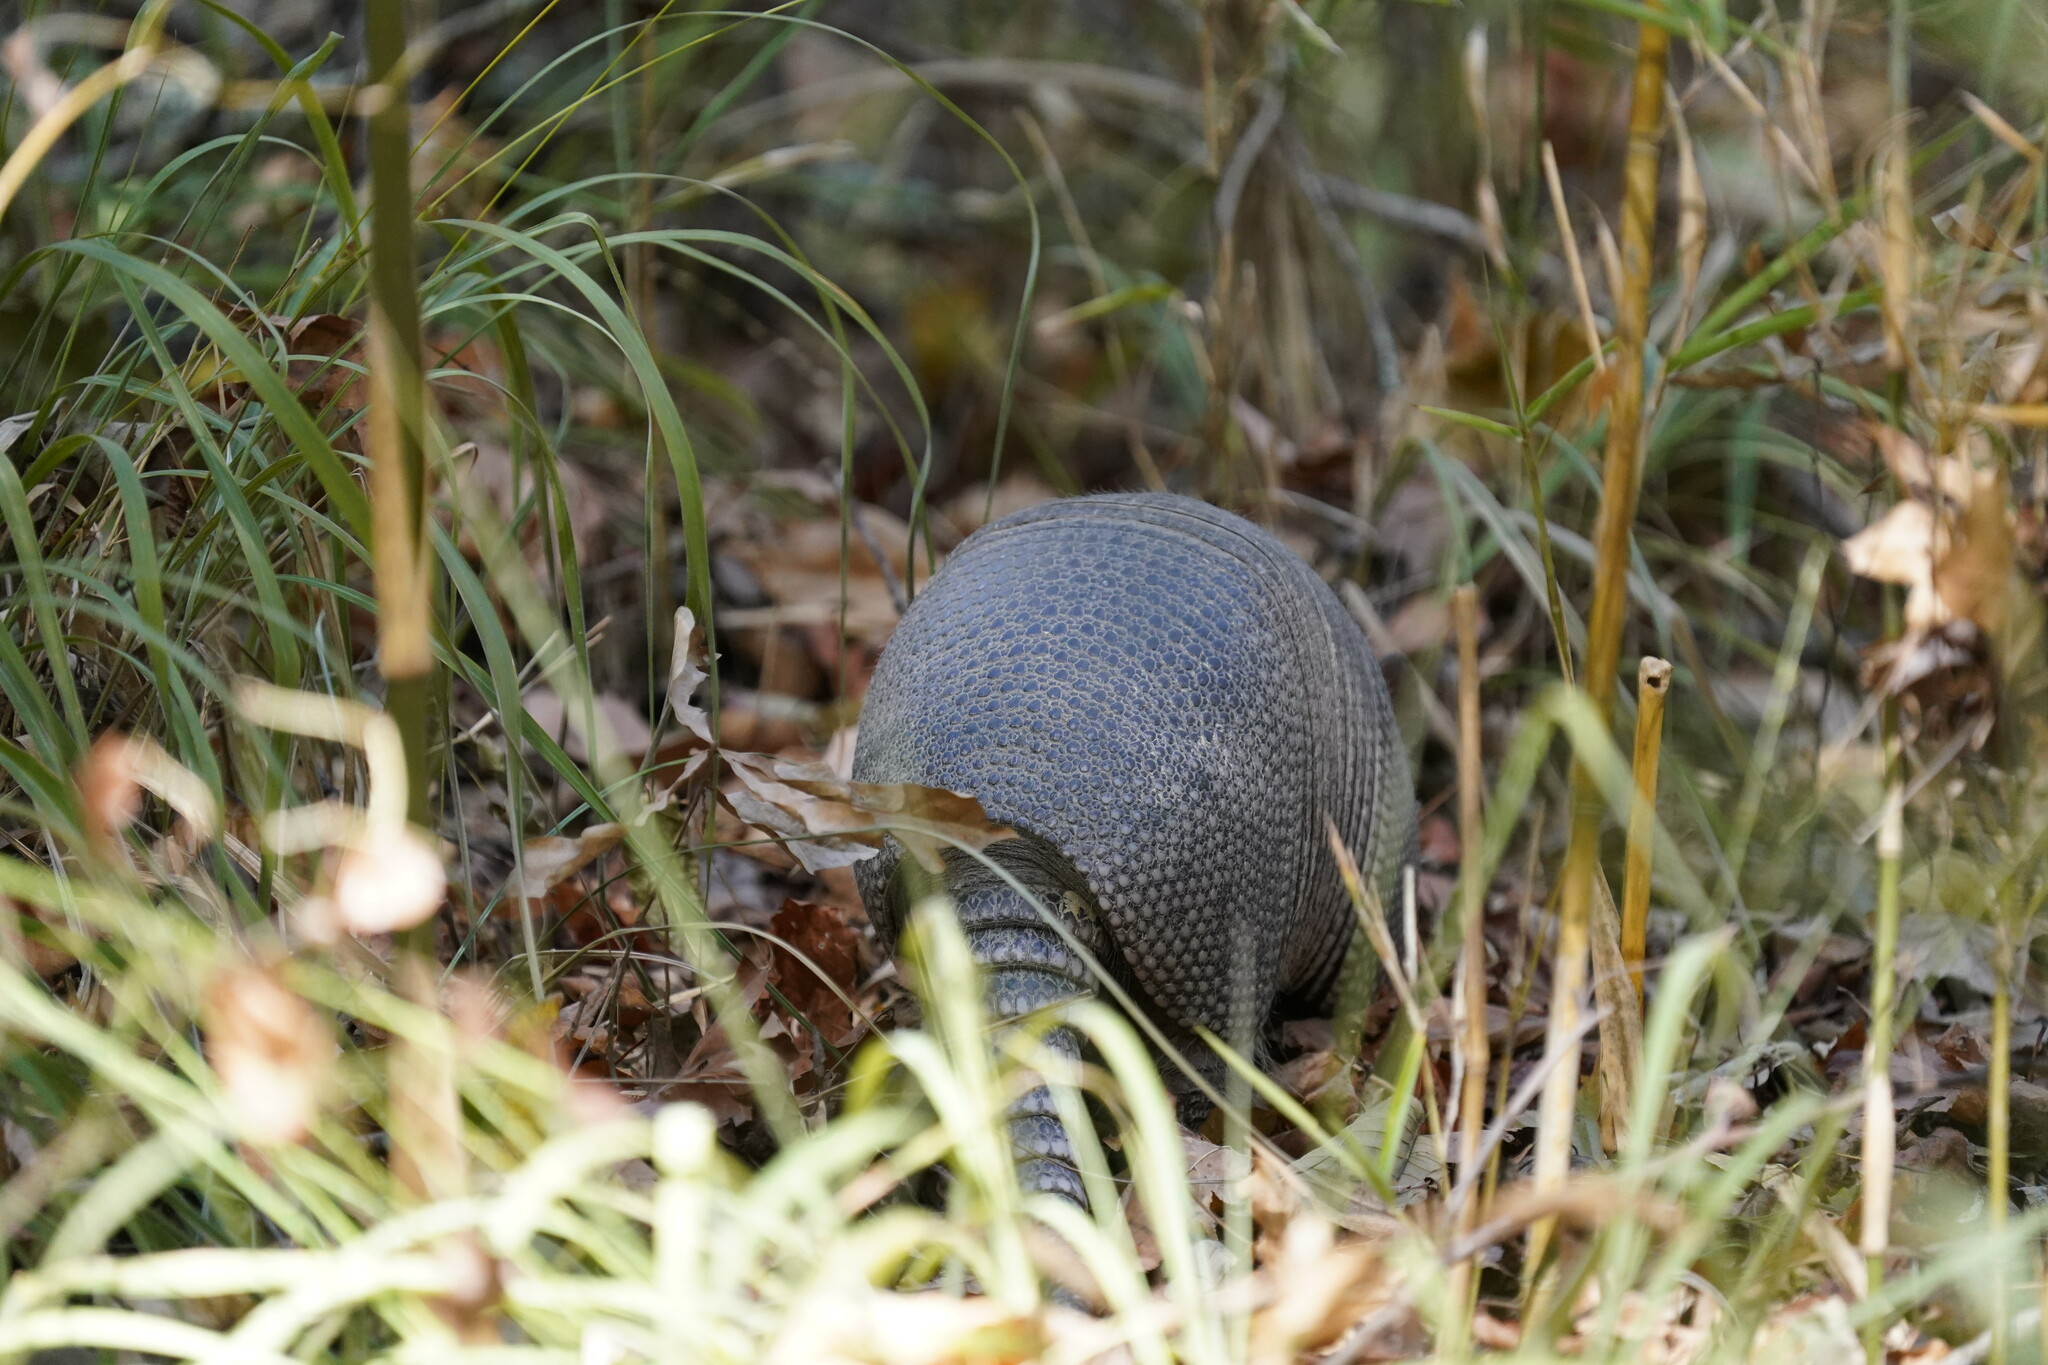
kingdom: Animalia
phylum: Chordata
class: Mammalia
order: Cingulata
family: Dasypodidae
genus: Dasypus
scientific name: Dasypus novemcinctus
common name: Nine-banded armadillo
